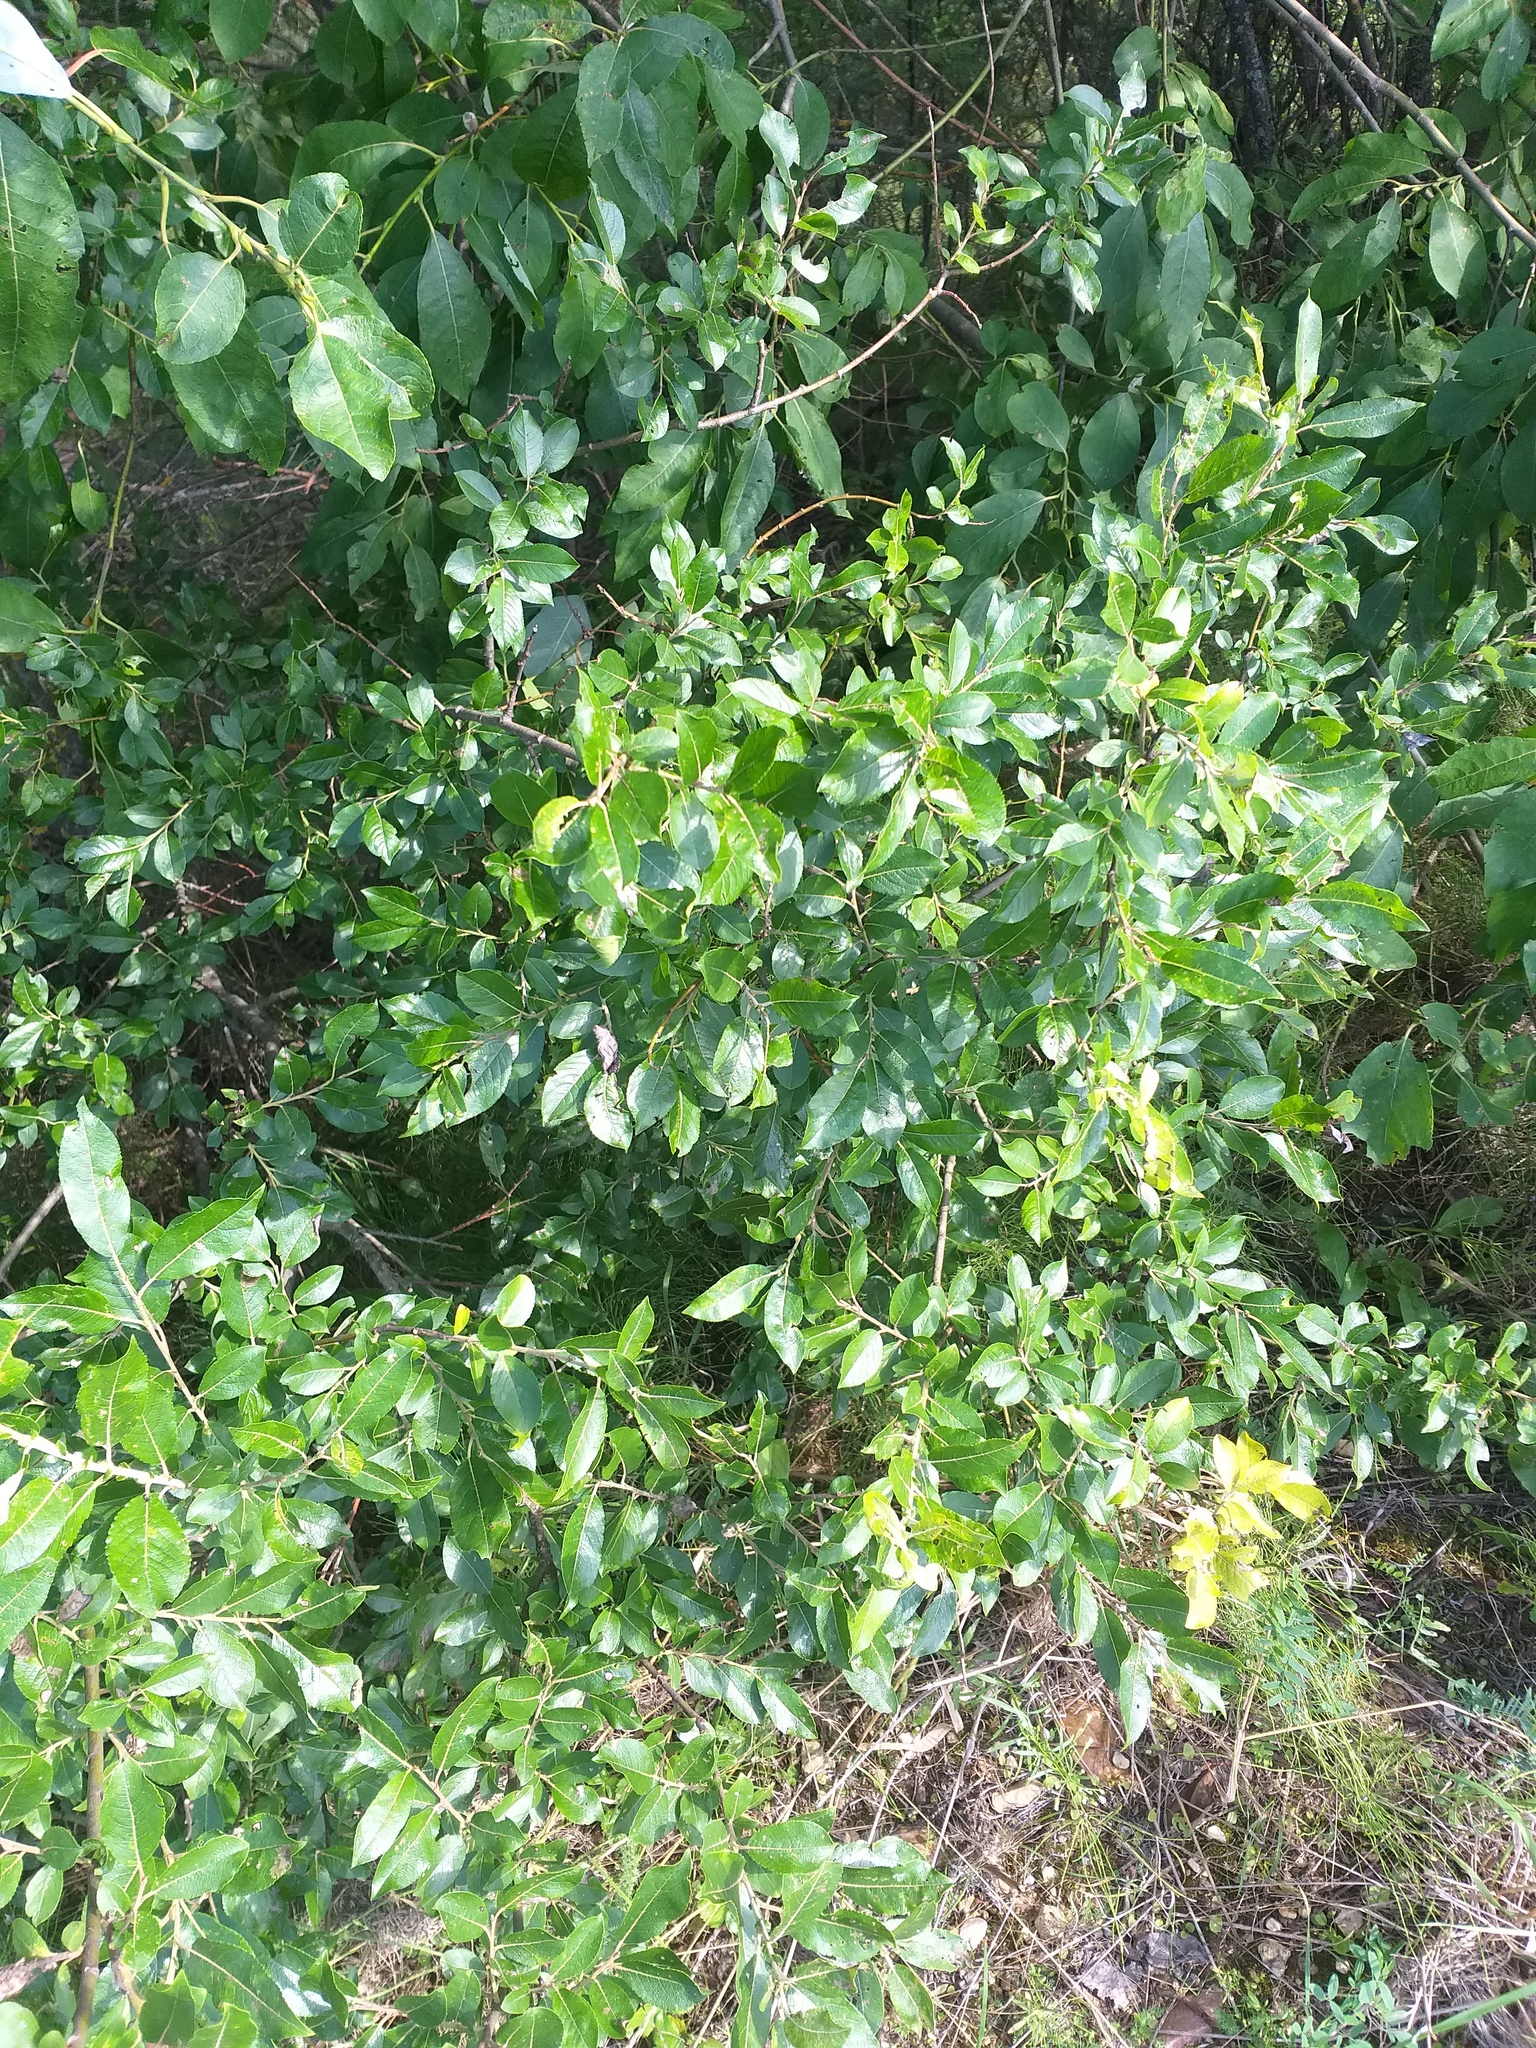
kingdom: Plantae
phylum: Tracheophyta
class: Magnoliopsida
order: Malpighiales
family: Salicaceae
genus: Salix
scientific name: Salix myrsinifolia
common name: Dark-leaved willow
